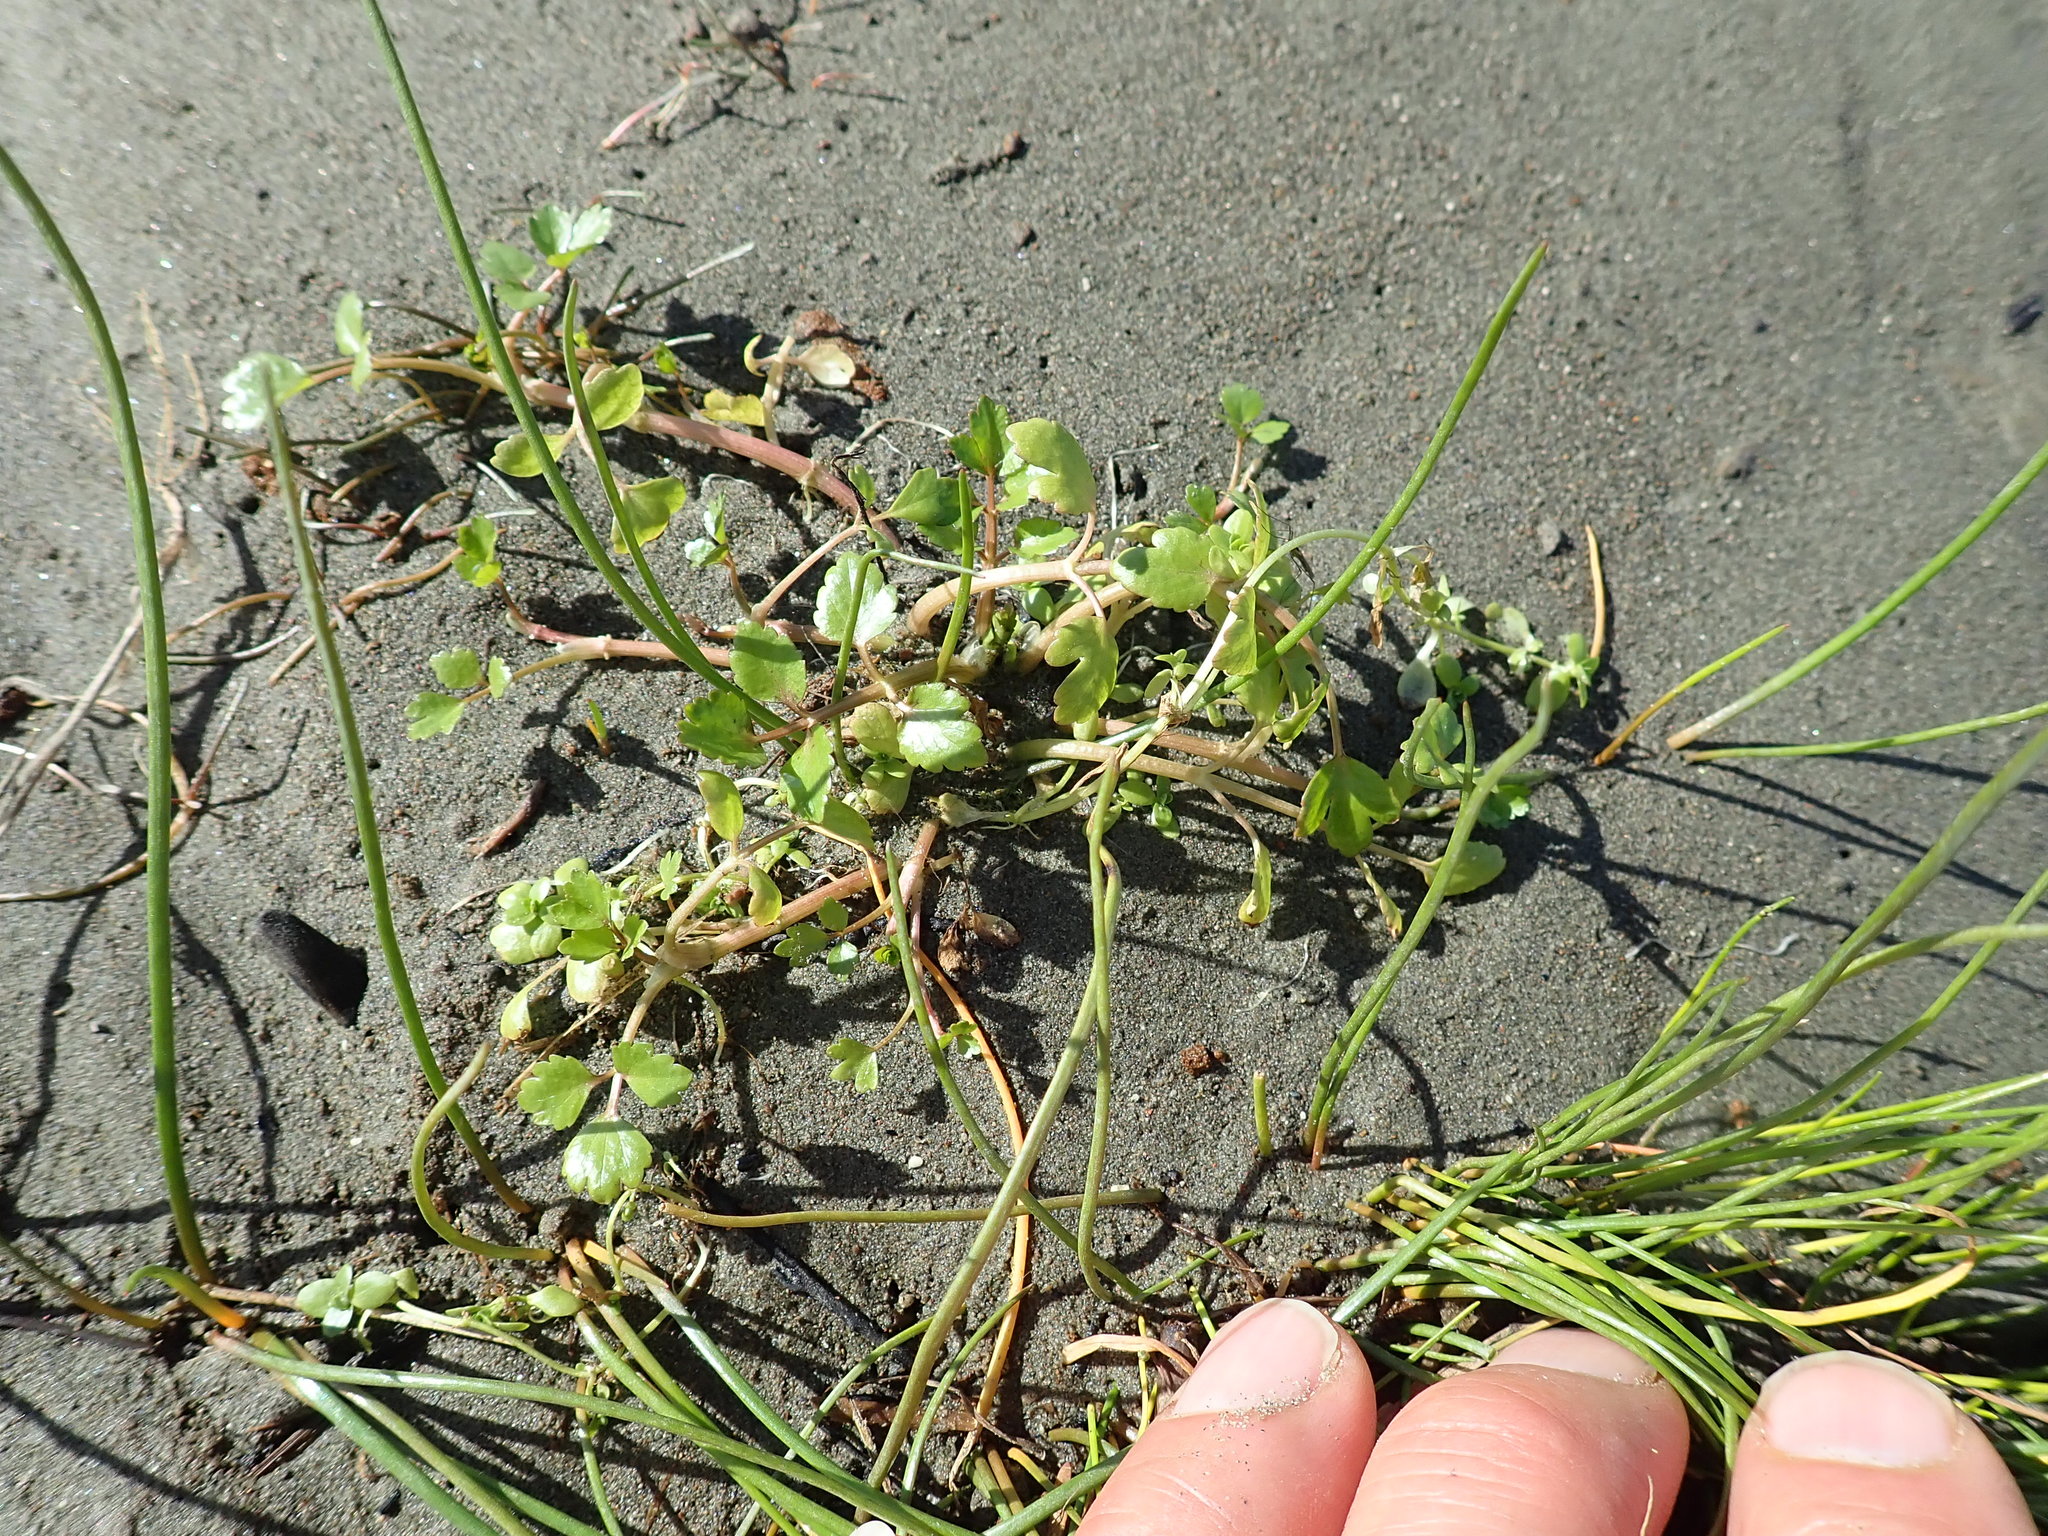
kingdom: Plantae
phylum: Tracheophyta
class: Magnoliopsida
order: Apiales
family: Apiaceae
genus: Apium
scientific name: Apium prostratum
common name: Prostrate marshwort
